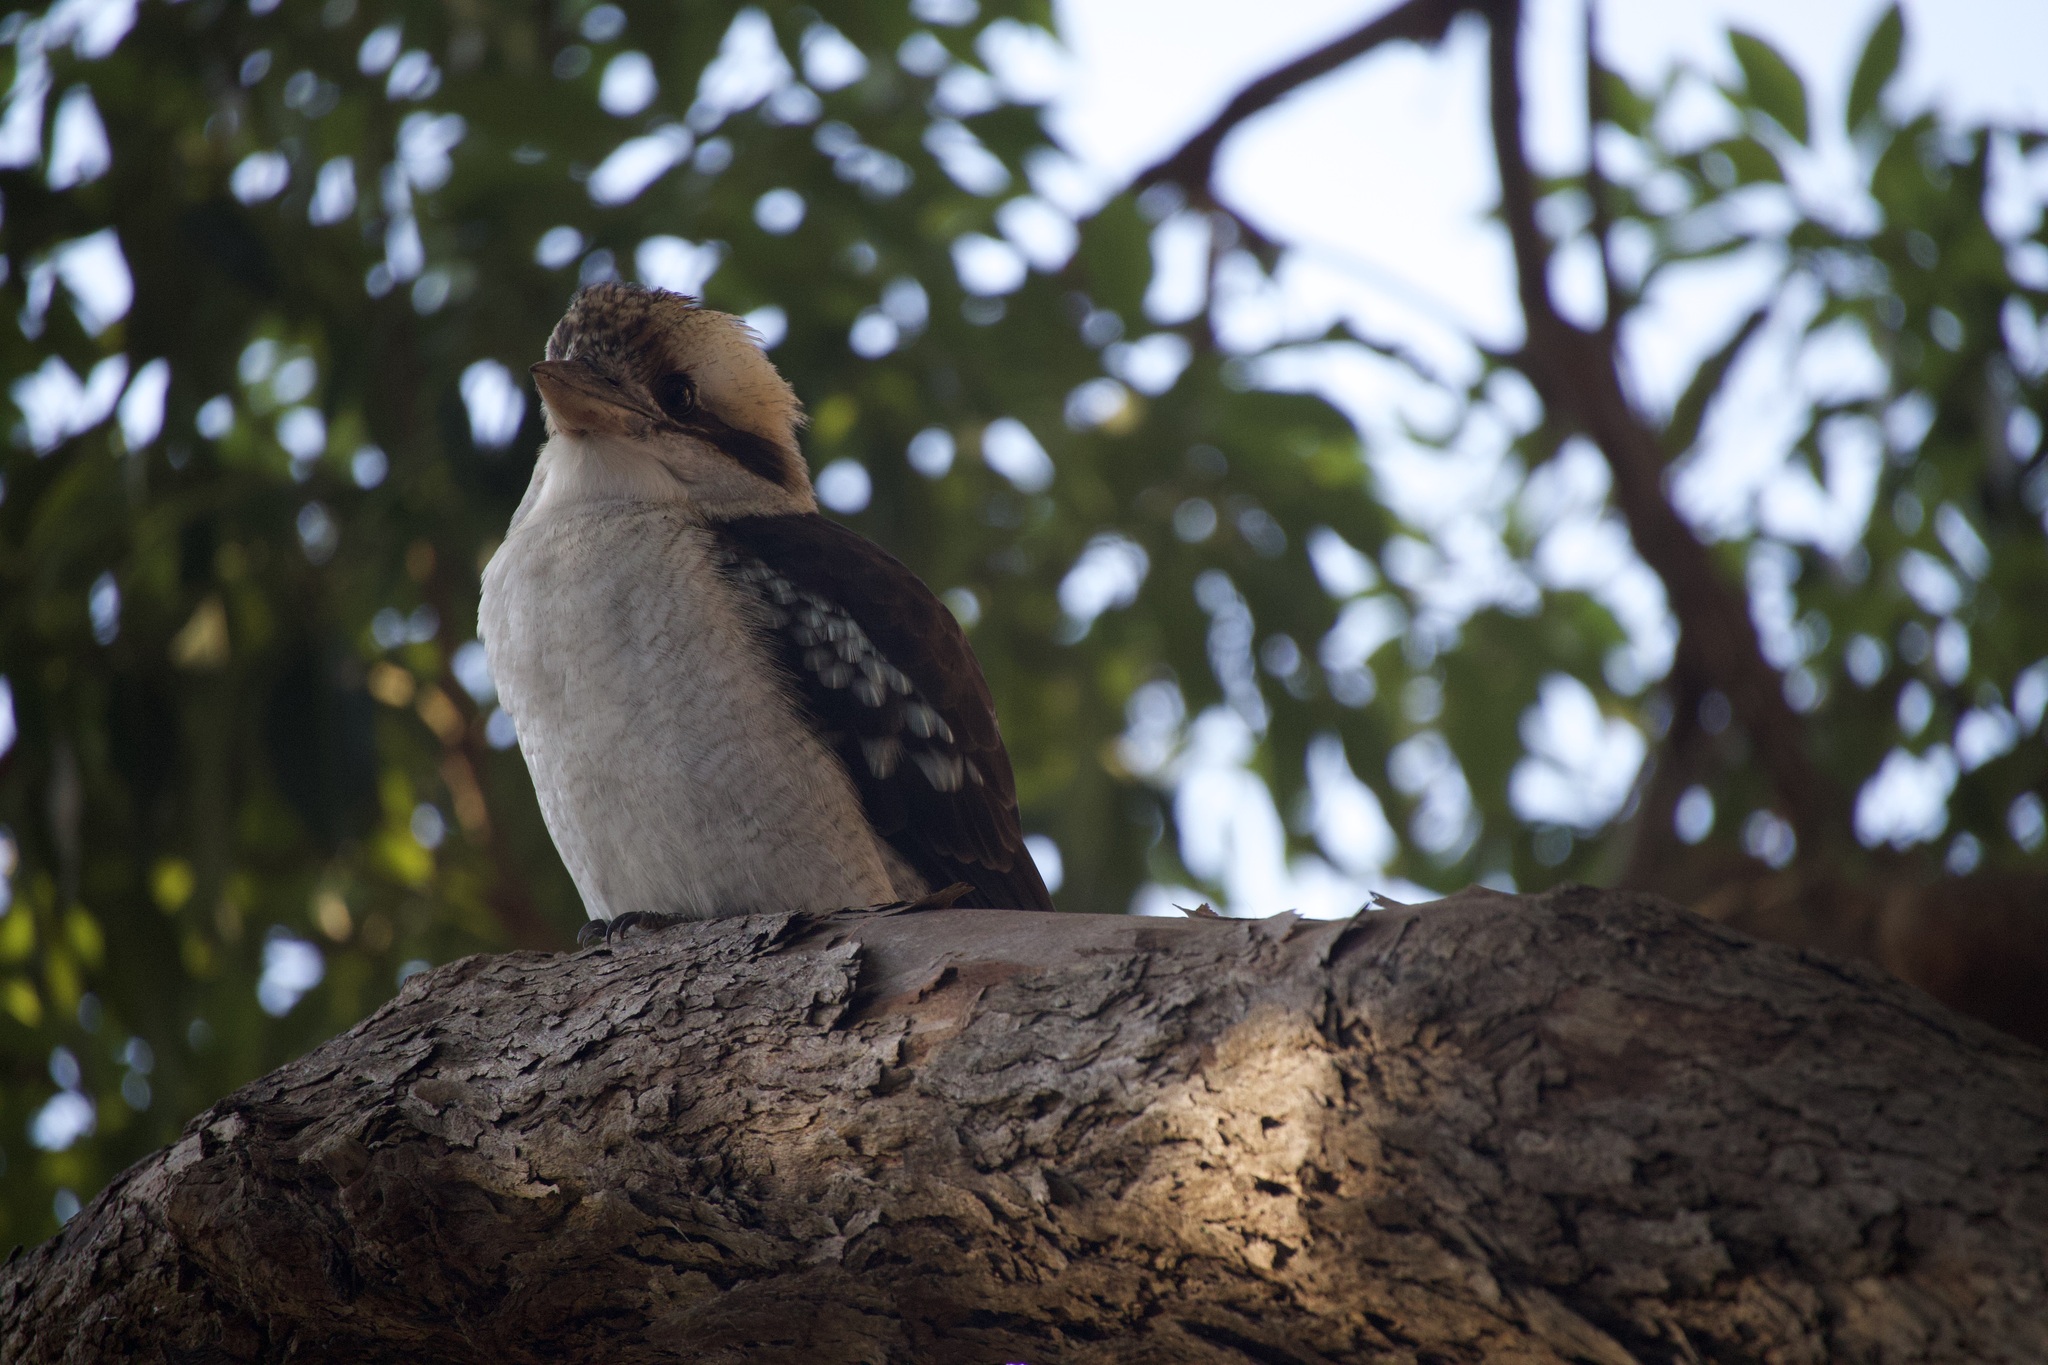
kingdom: Animalia
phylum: Chordata
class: Aves
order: Coraciiformes
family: Alcedinidae
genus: Dacelo
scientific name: Dacelo novaeguineae
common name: Laughing kookaburra
